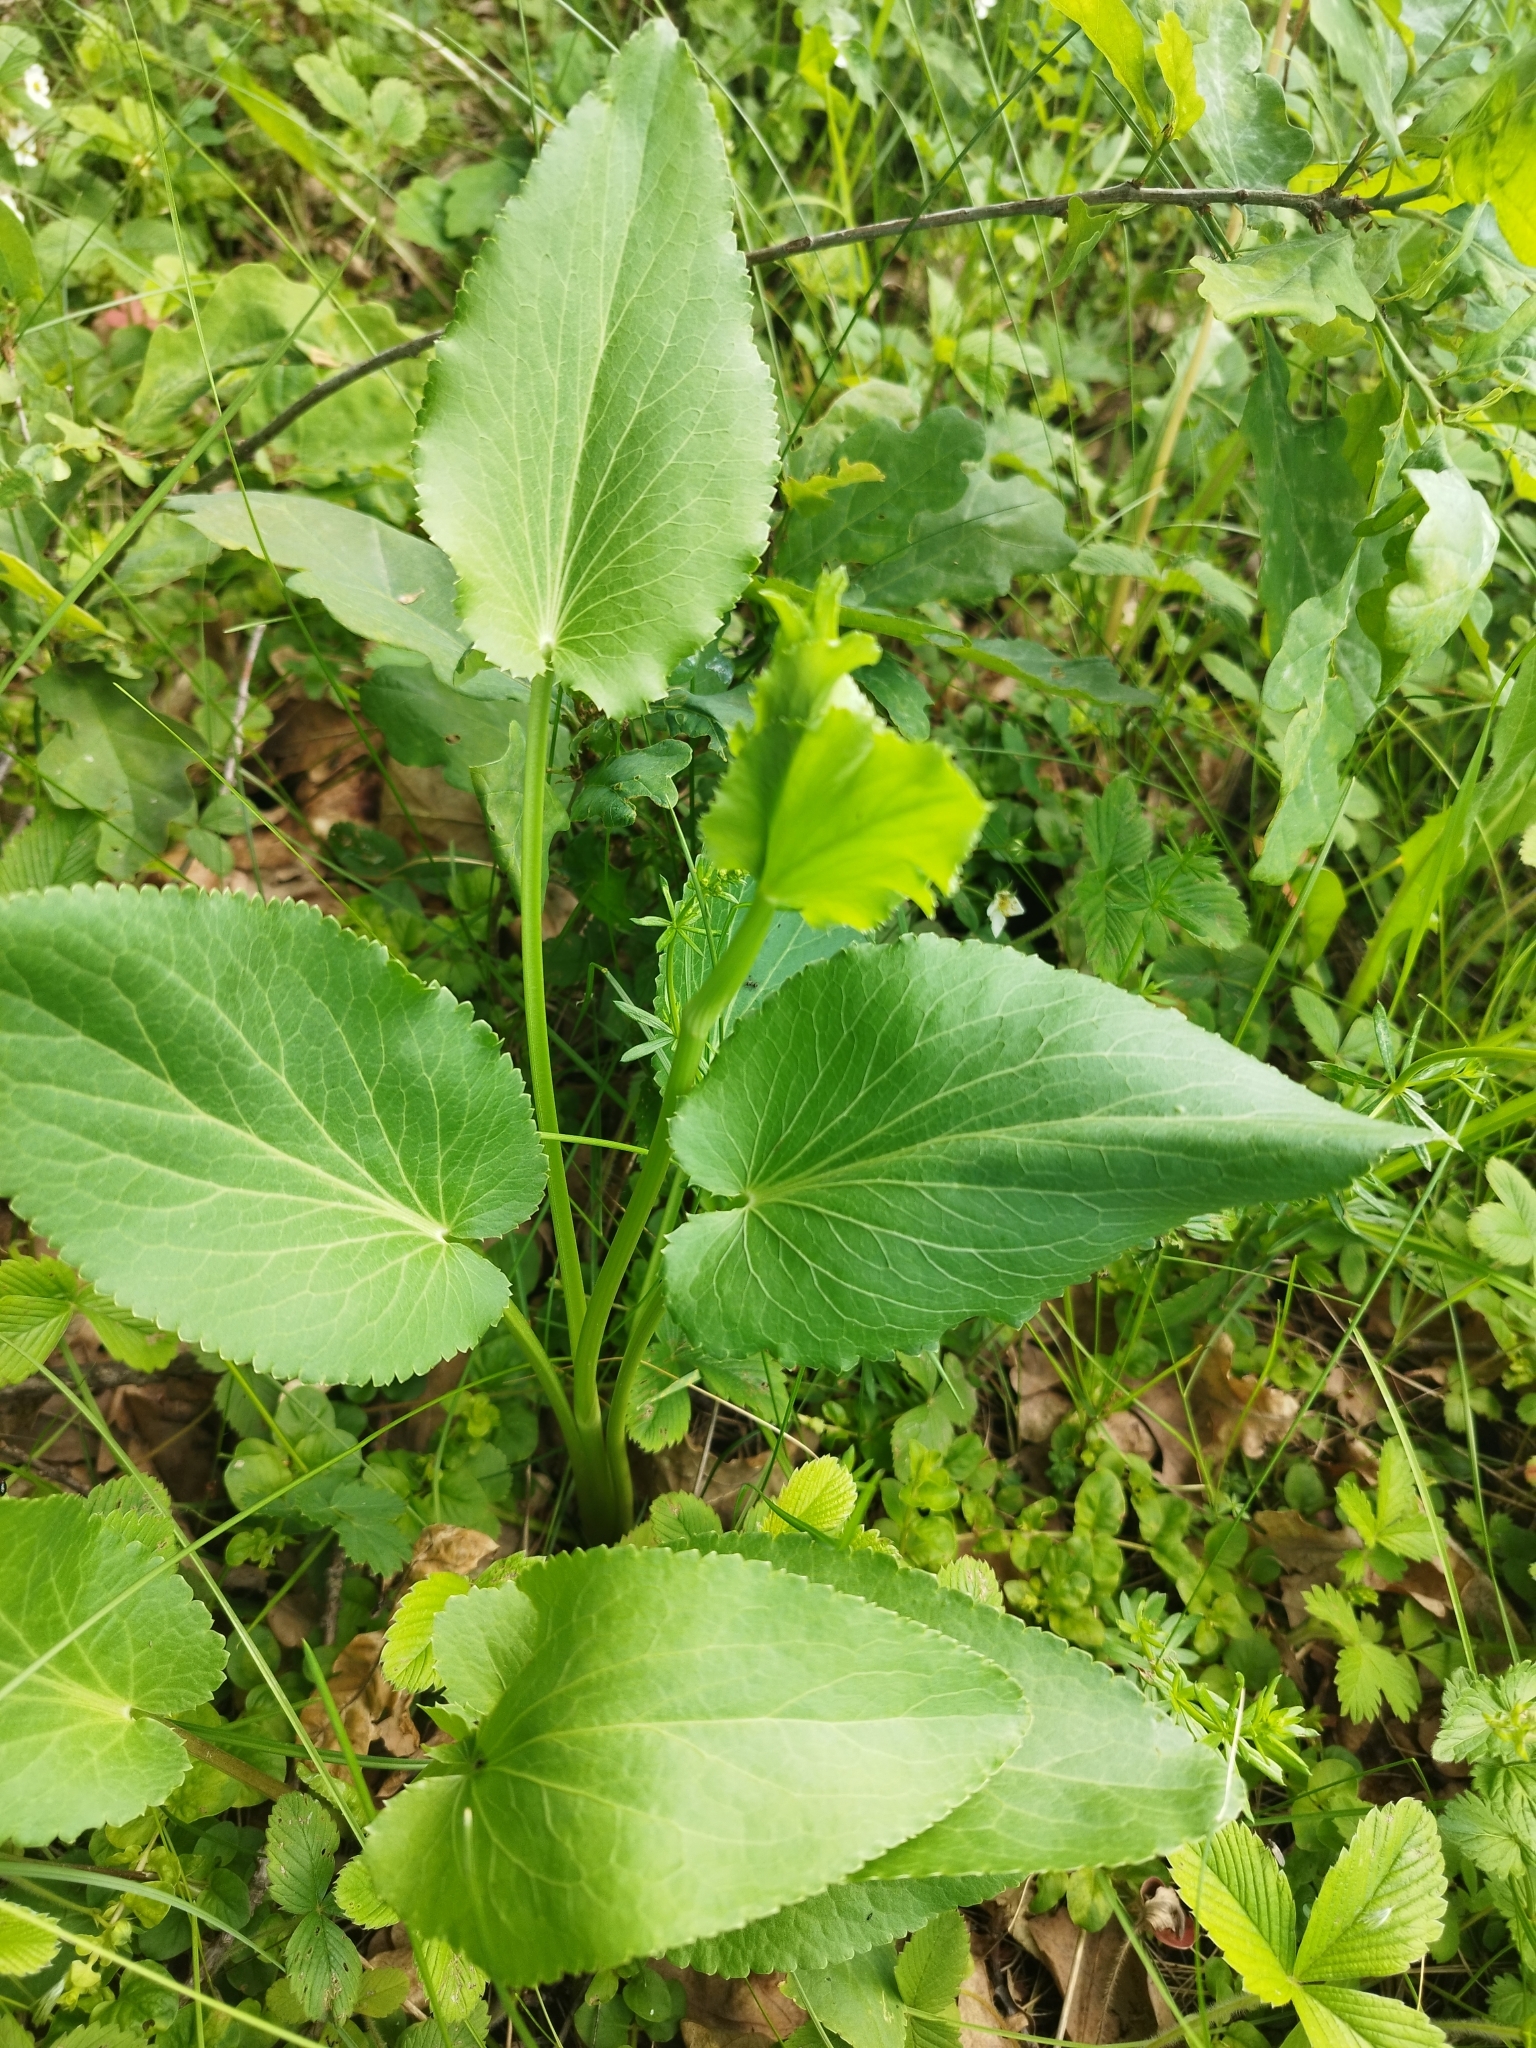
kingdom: Plantae
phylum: Tracheophyta
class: Magnoliopsida
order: Apiales
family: Apiaceae
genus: Eryngium
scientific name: Eryngium planum
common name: Blue eryngo
